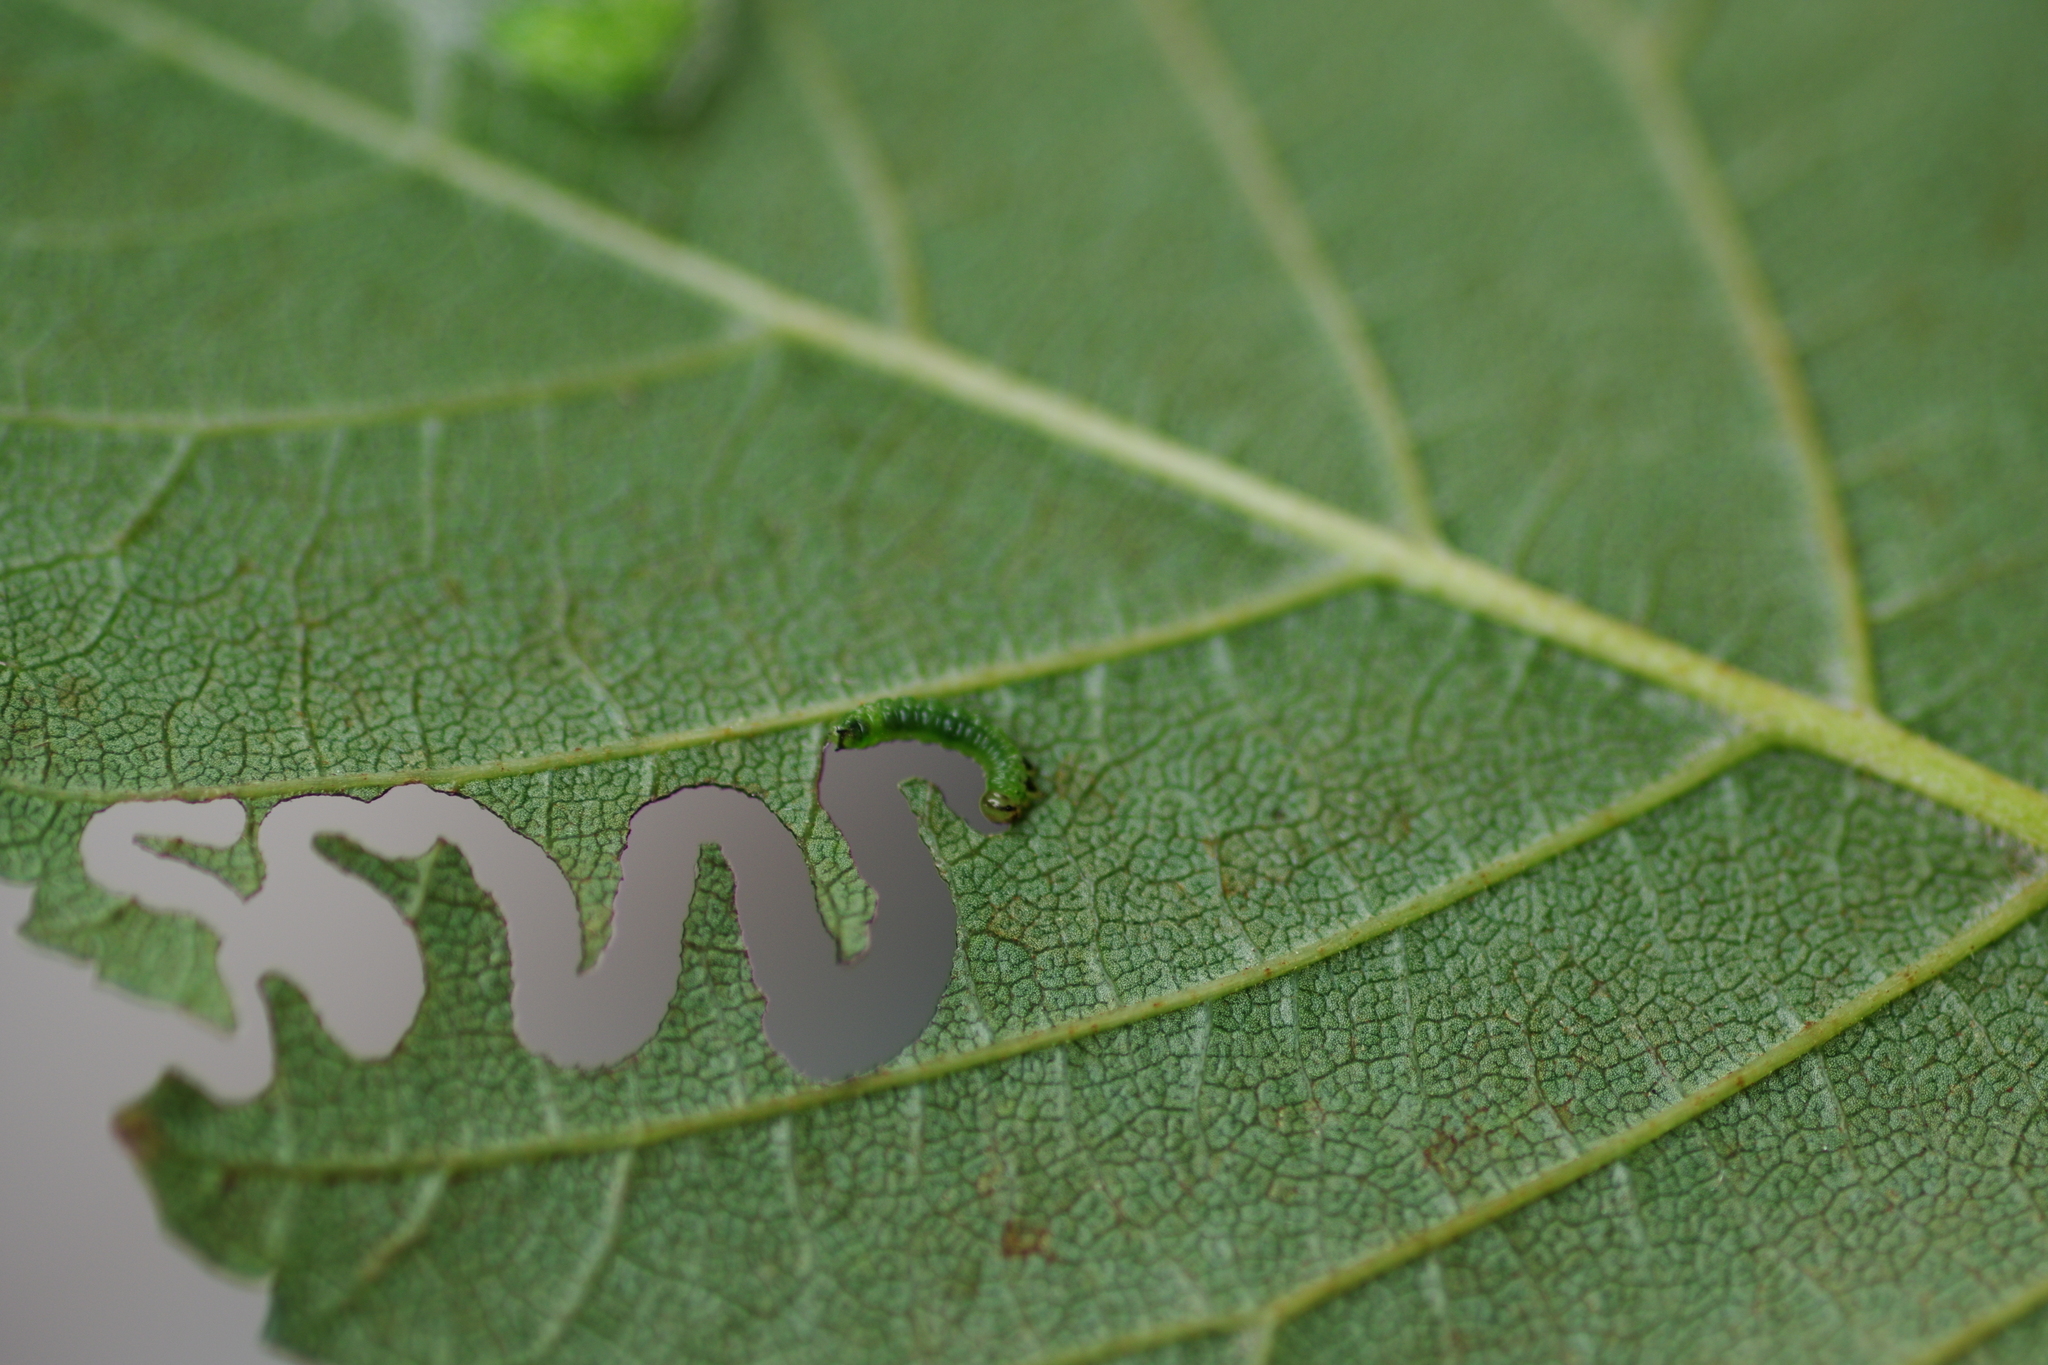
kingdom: Animalia
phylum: Arthropoda
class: Insecta
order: Hymenoptera
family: Argidae
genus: Aproceros
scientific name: Aproceros leucopoda
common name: Zig-zag elm sawfly
